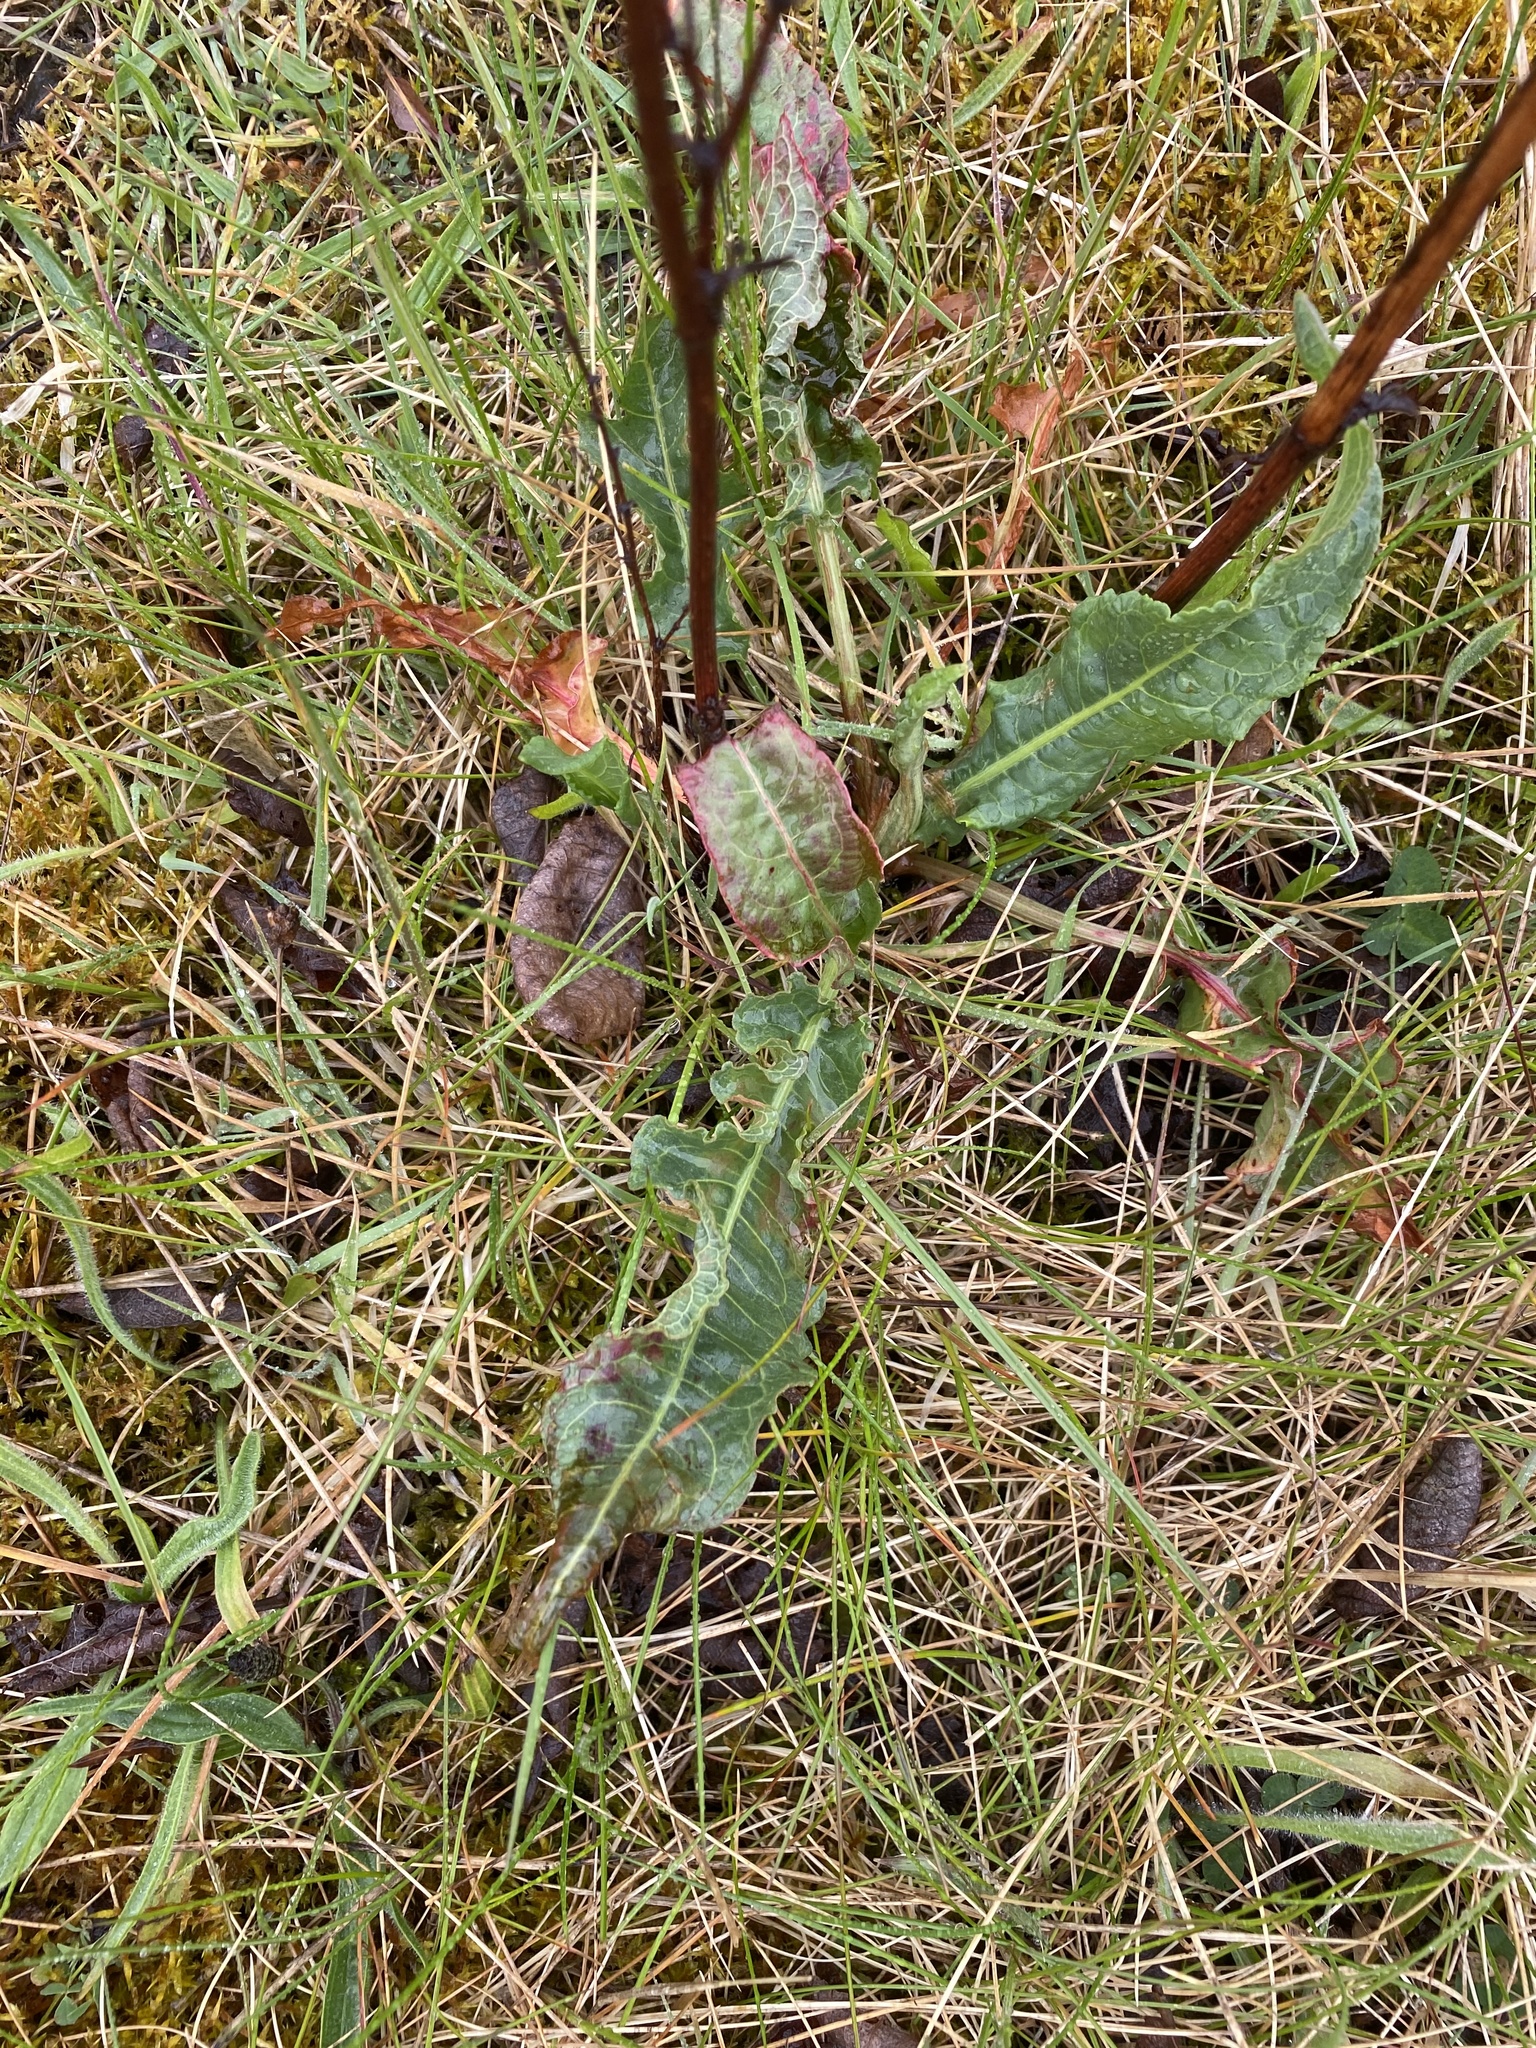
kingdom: Plantae
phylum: Tracheophyta
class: Magnoliopsida
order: Caryophyllales
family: Polygonaceae
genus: Rumex
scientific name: Rumex crispus
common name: Curled dock
